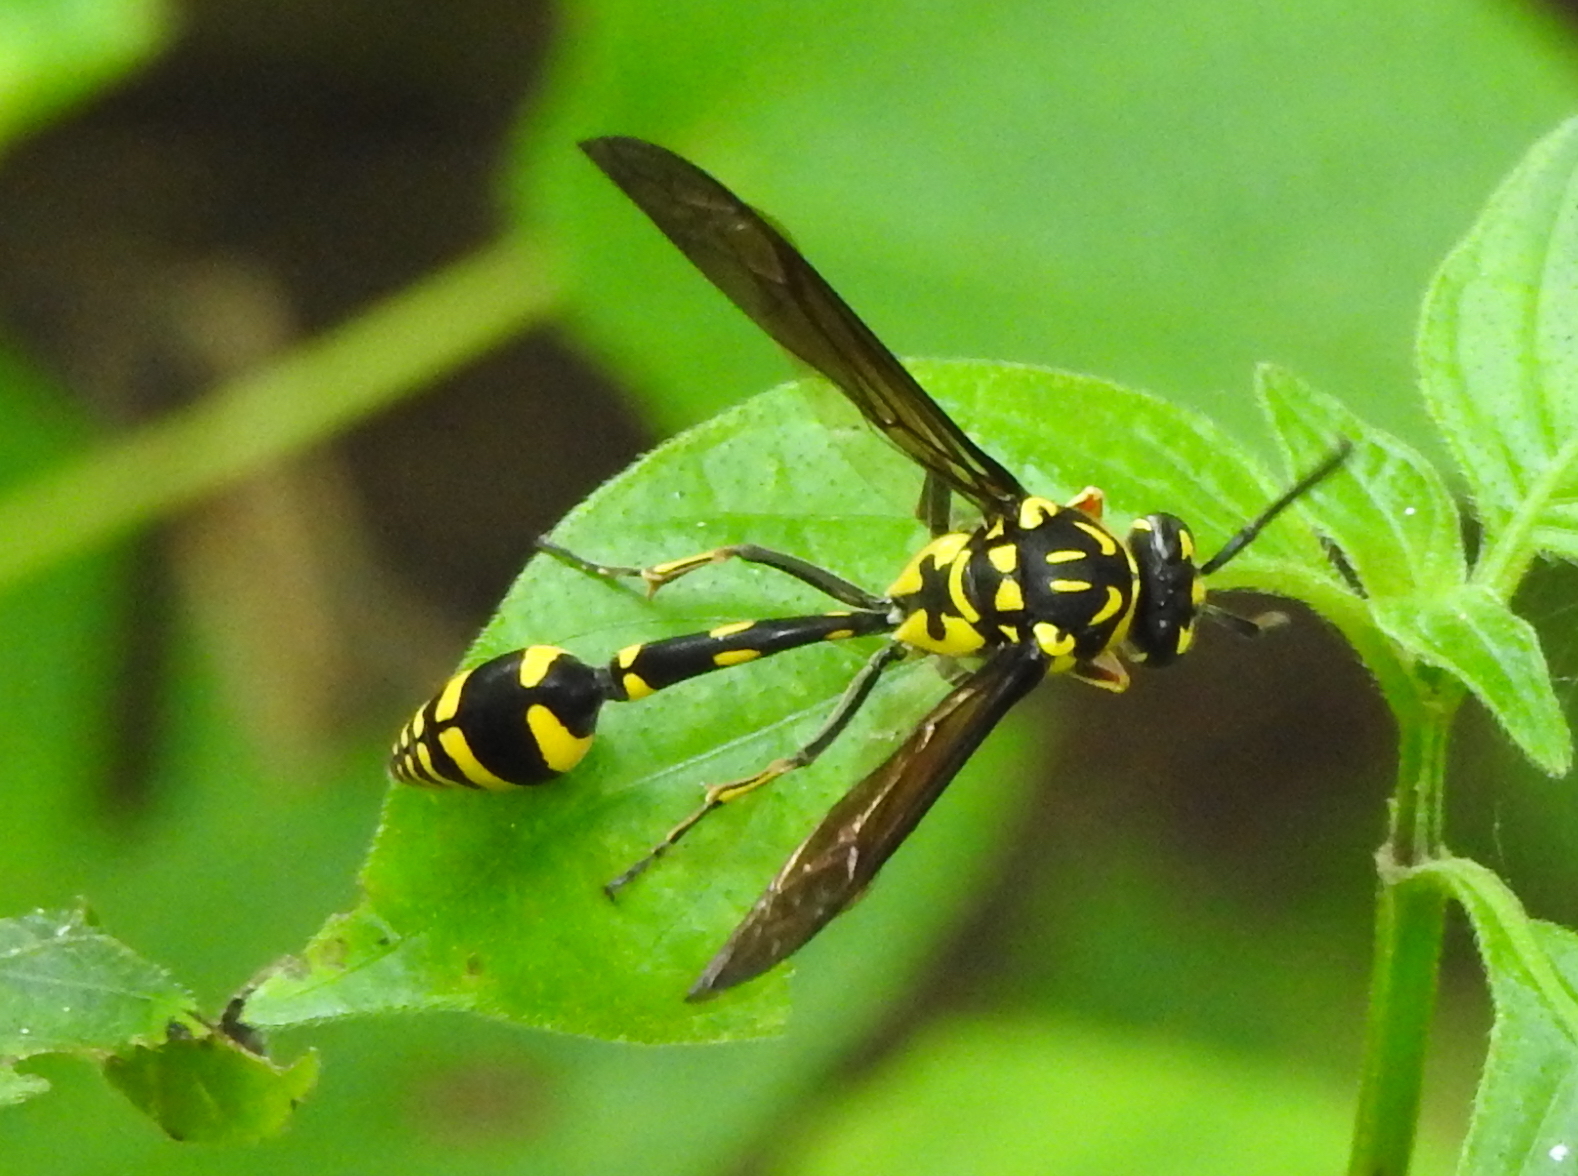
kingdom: Animalia
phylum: Arthropoda
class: Insecta
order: Hymenoptera
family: Eumenidae
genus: Phimenes
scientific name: Phimenes flavopictus
